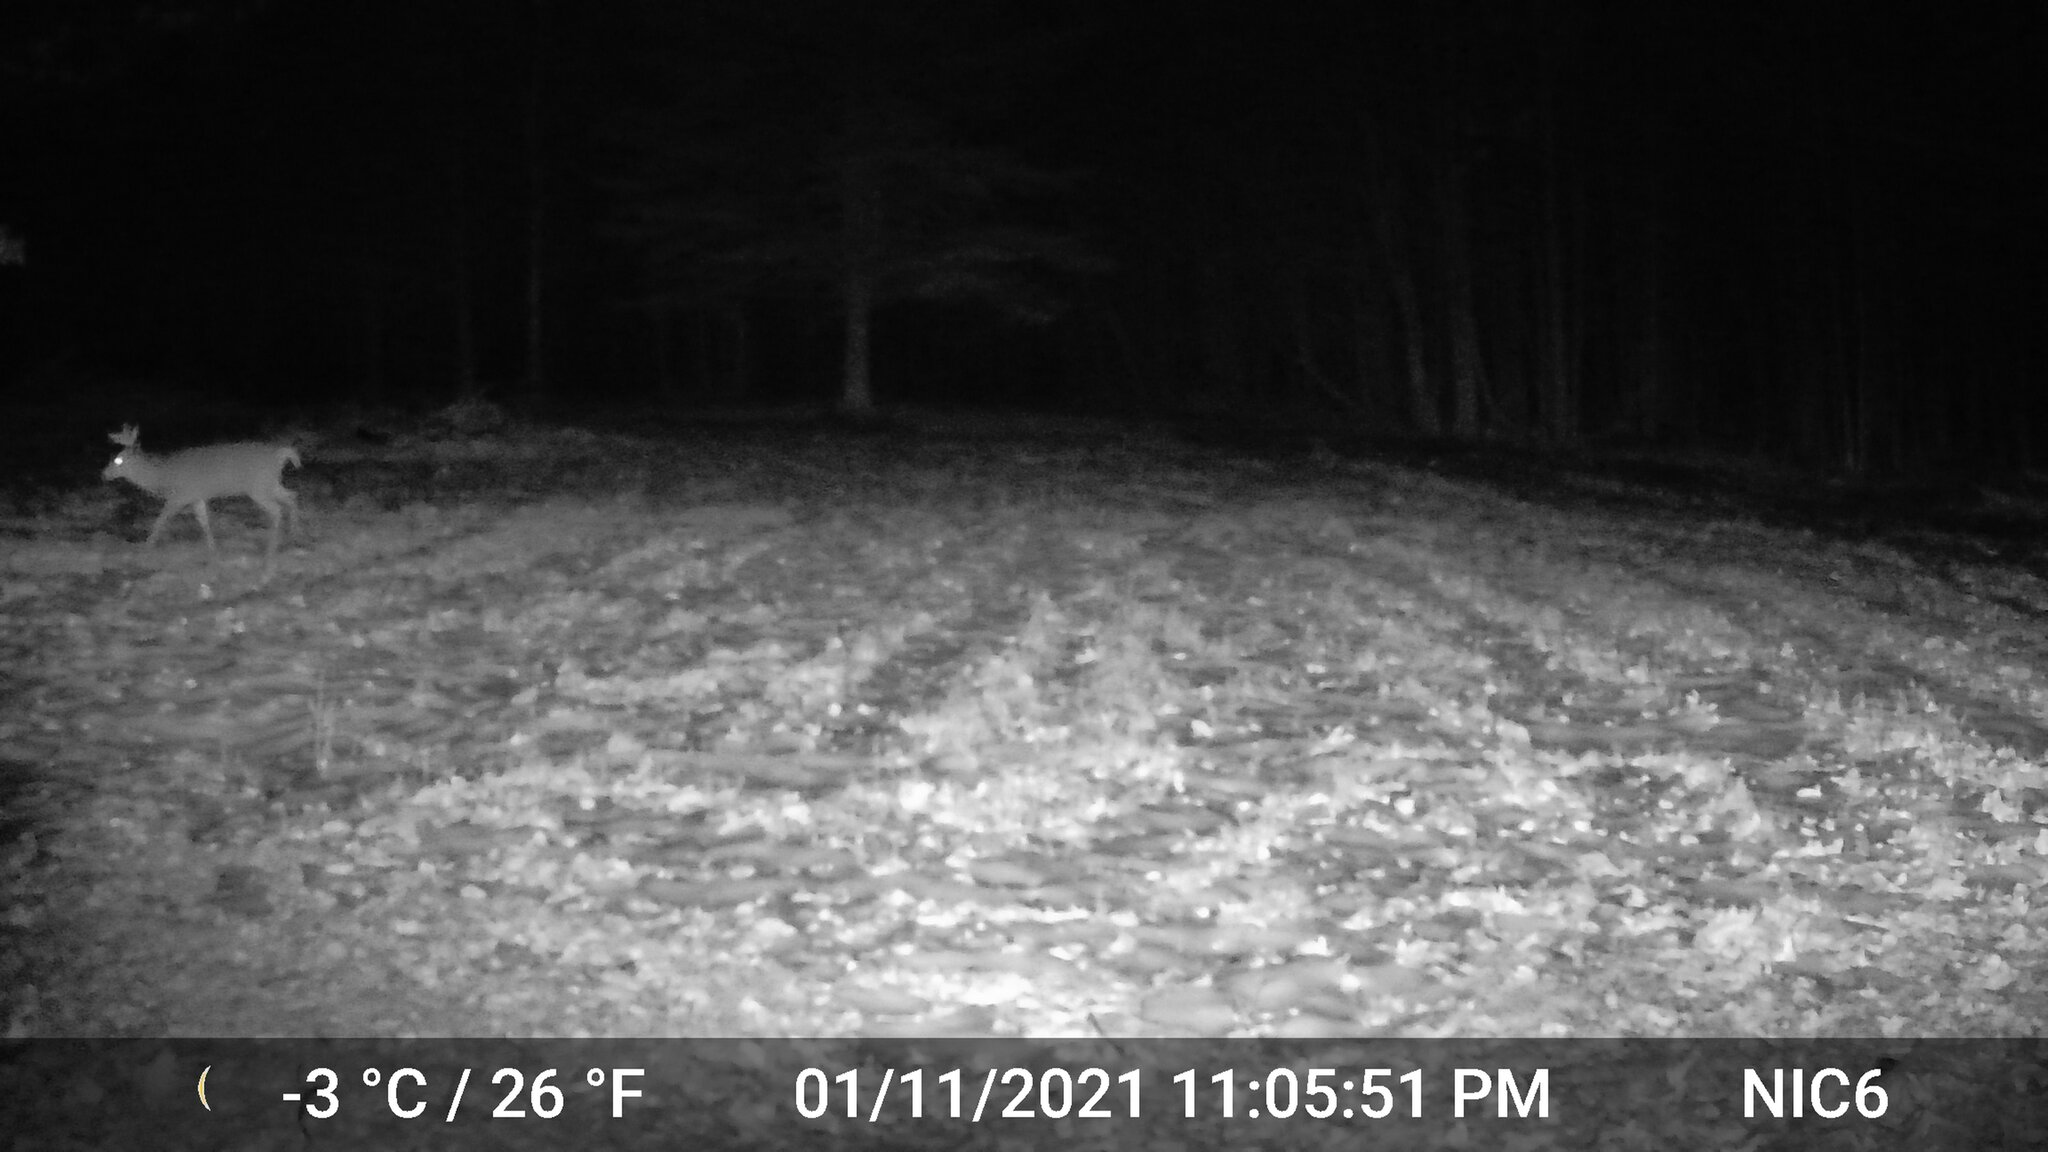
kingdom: Animalia
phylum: Chordata
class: Mammalia
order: Artiodactyla
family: Cervidae
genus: Odocoileus
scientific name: Odocoileus virginianus
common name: White-tailed deer
